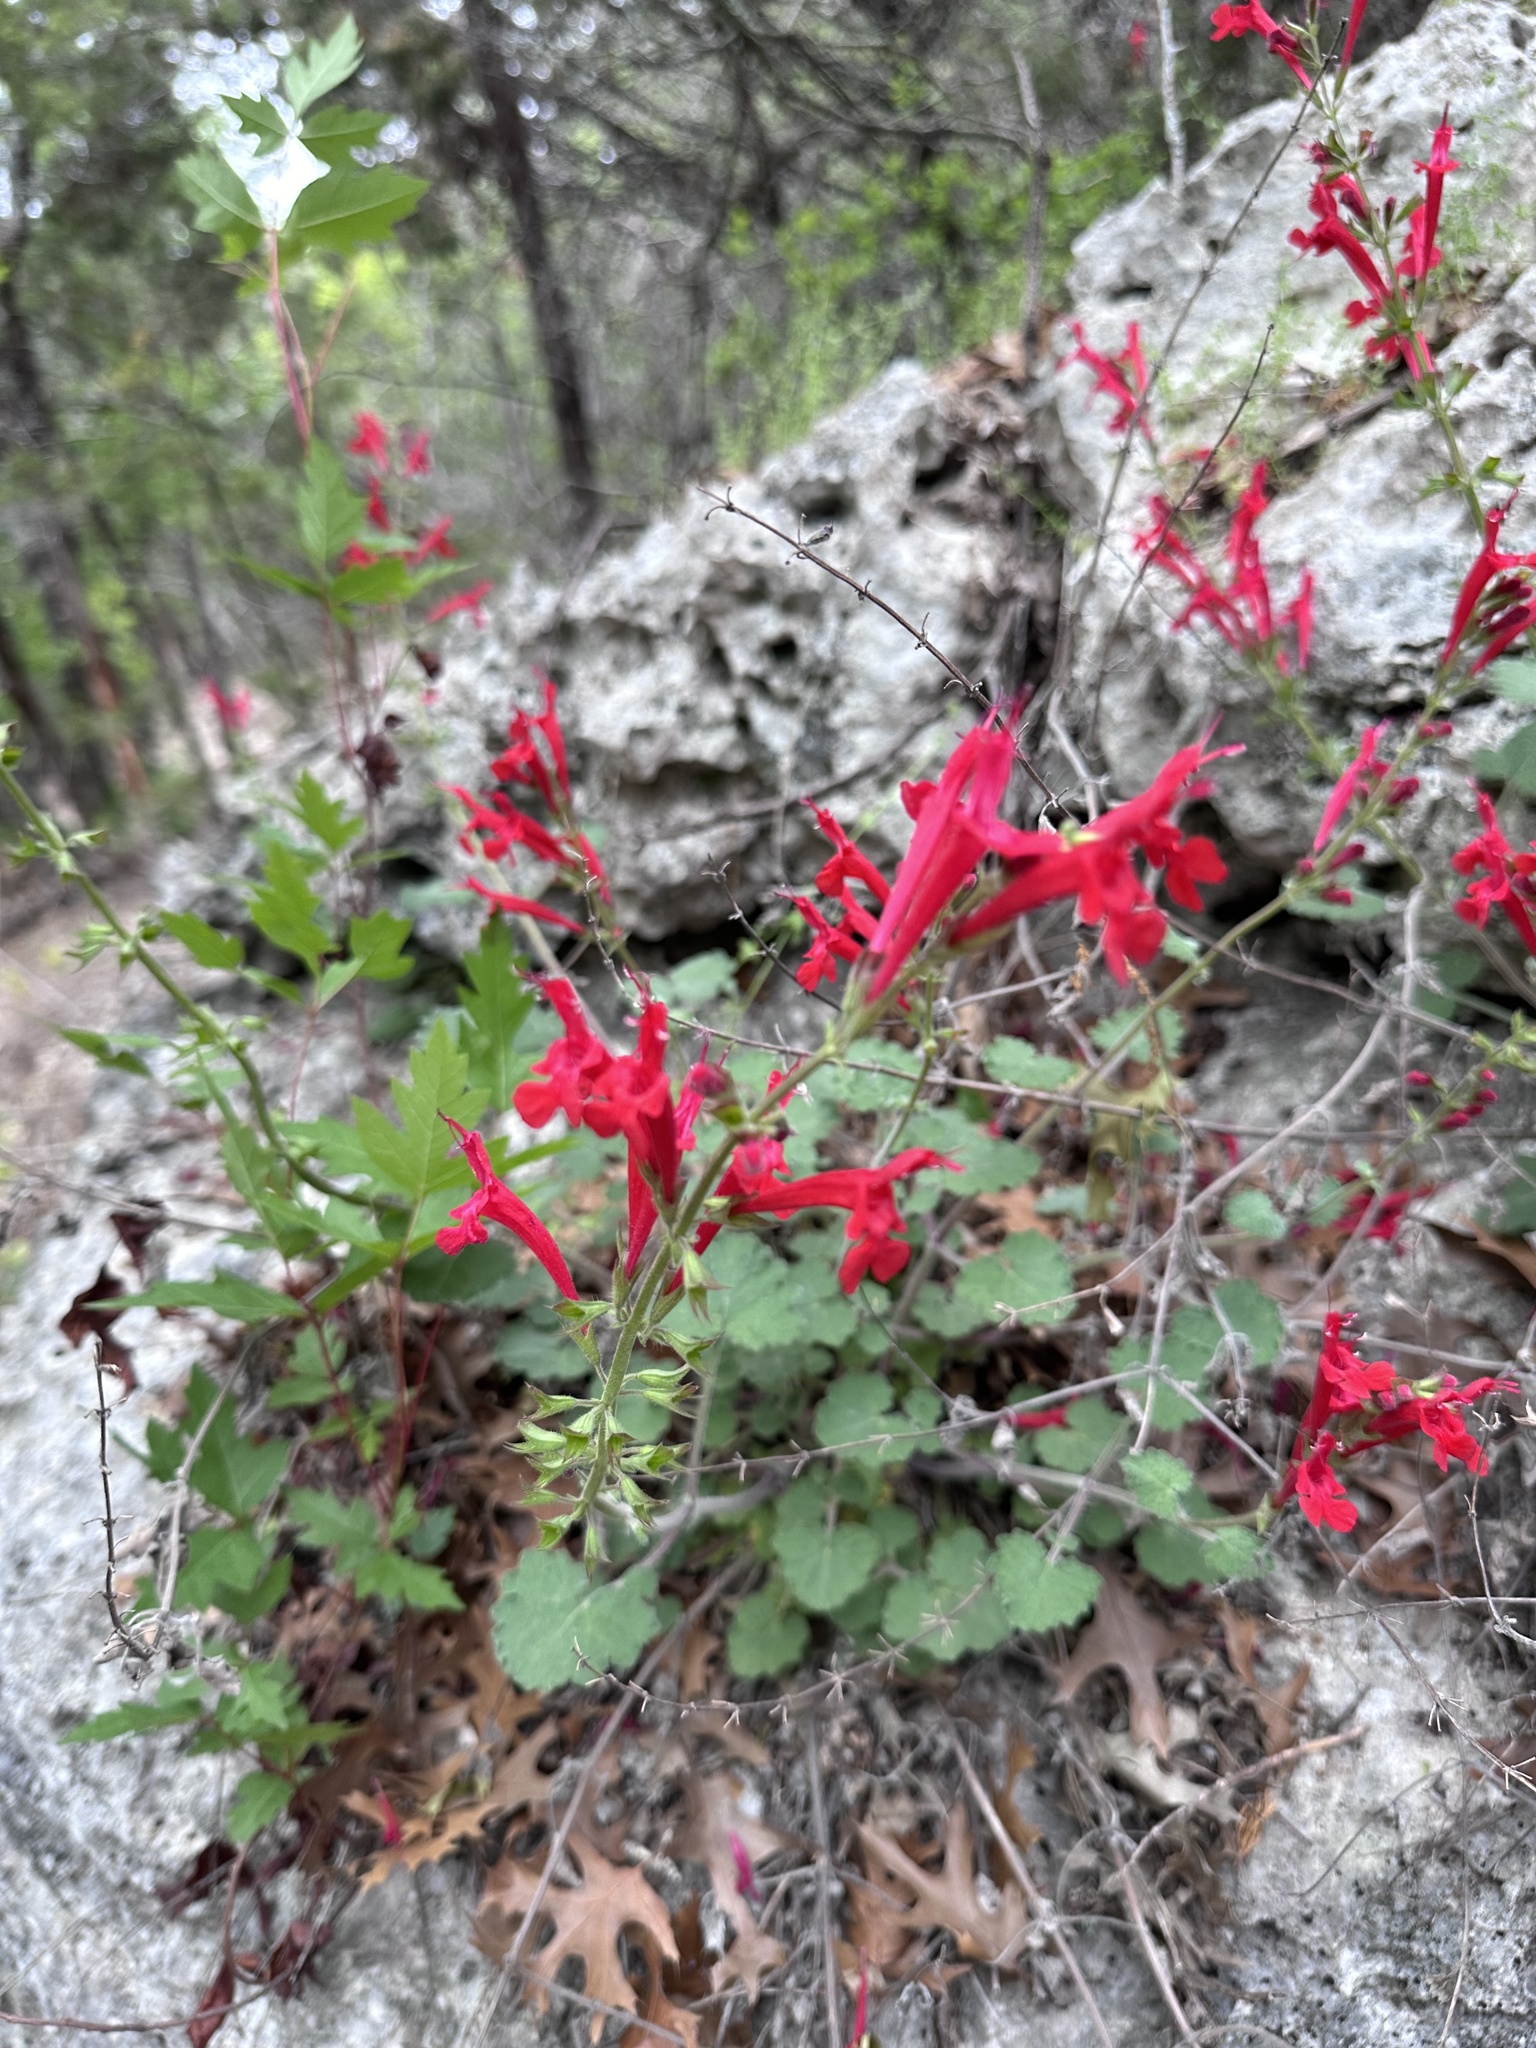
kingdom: Plantae
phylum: Tracheophyta
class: Magnoliopsida
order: Lamiales
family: Lamiaceae
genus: Salvia
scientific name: Salvia roemeriana
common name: Cedar sage
